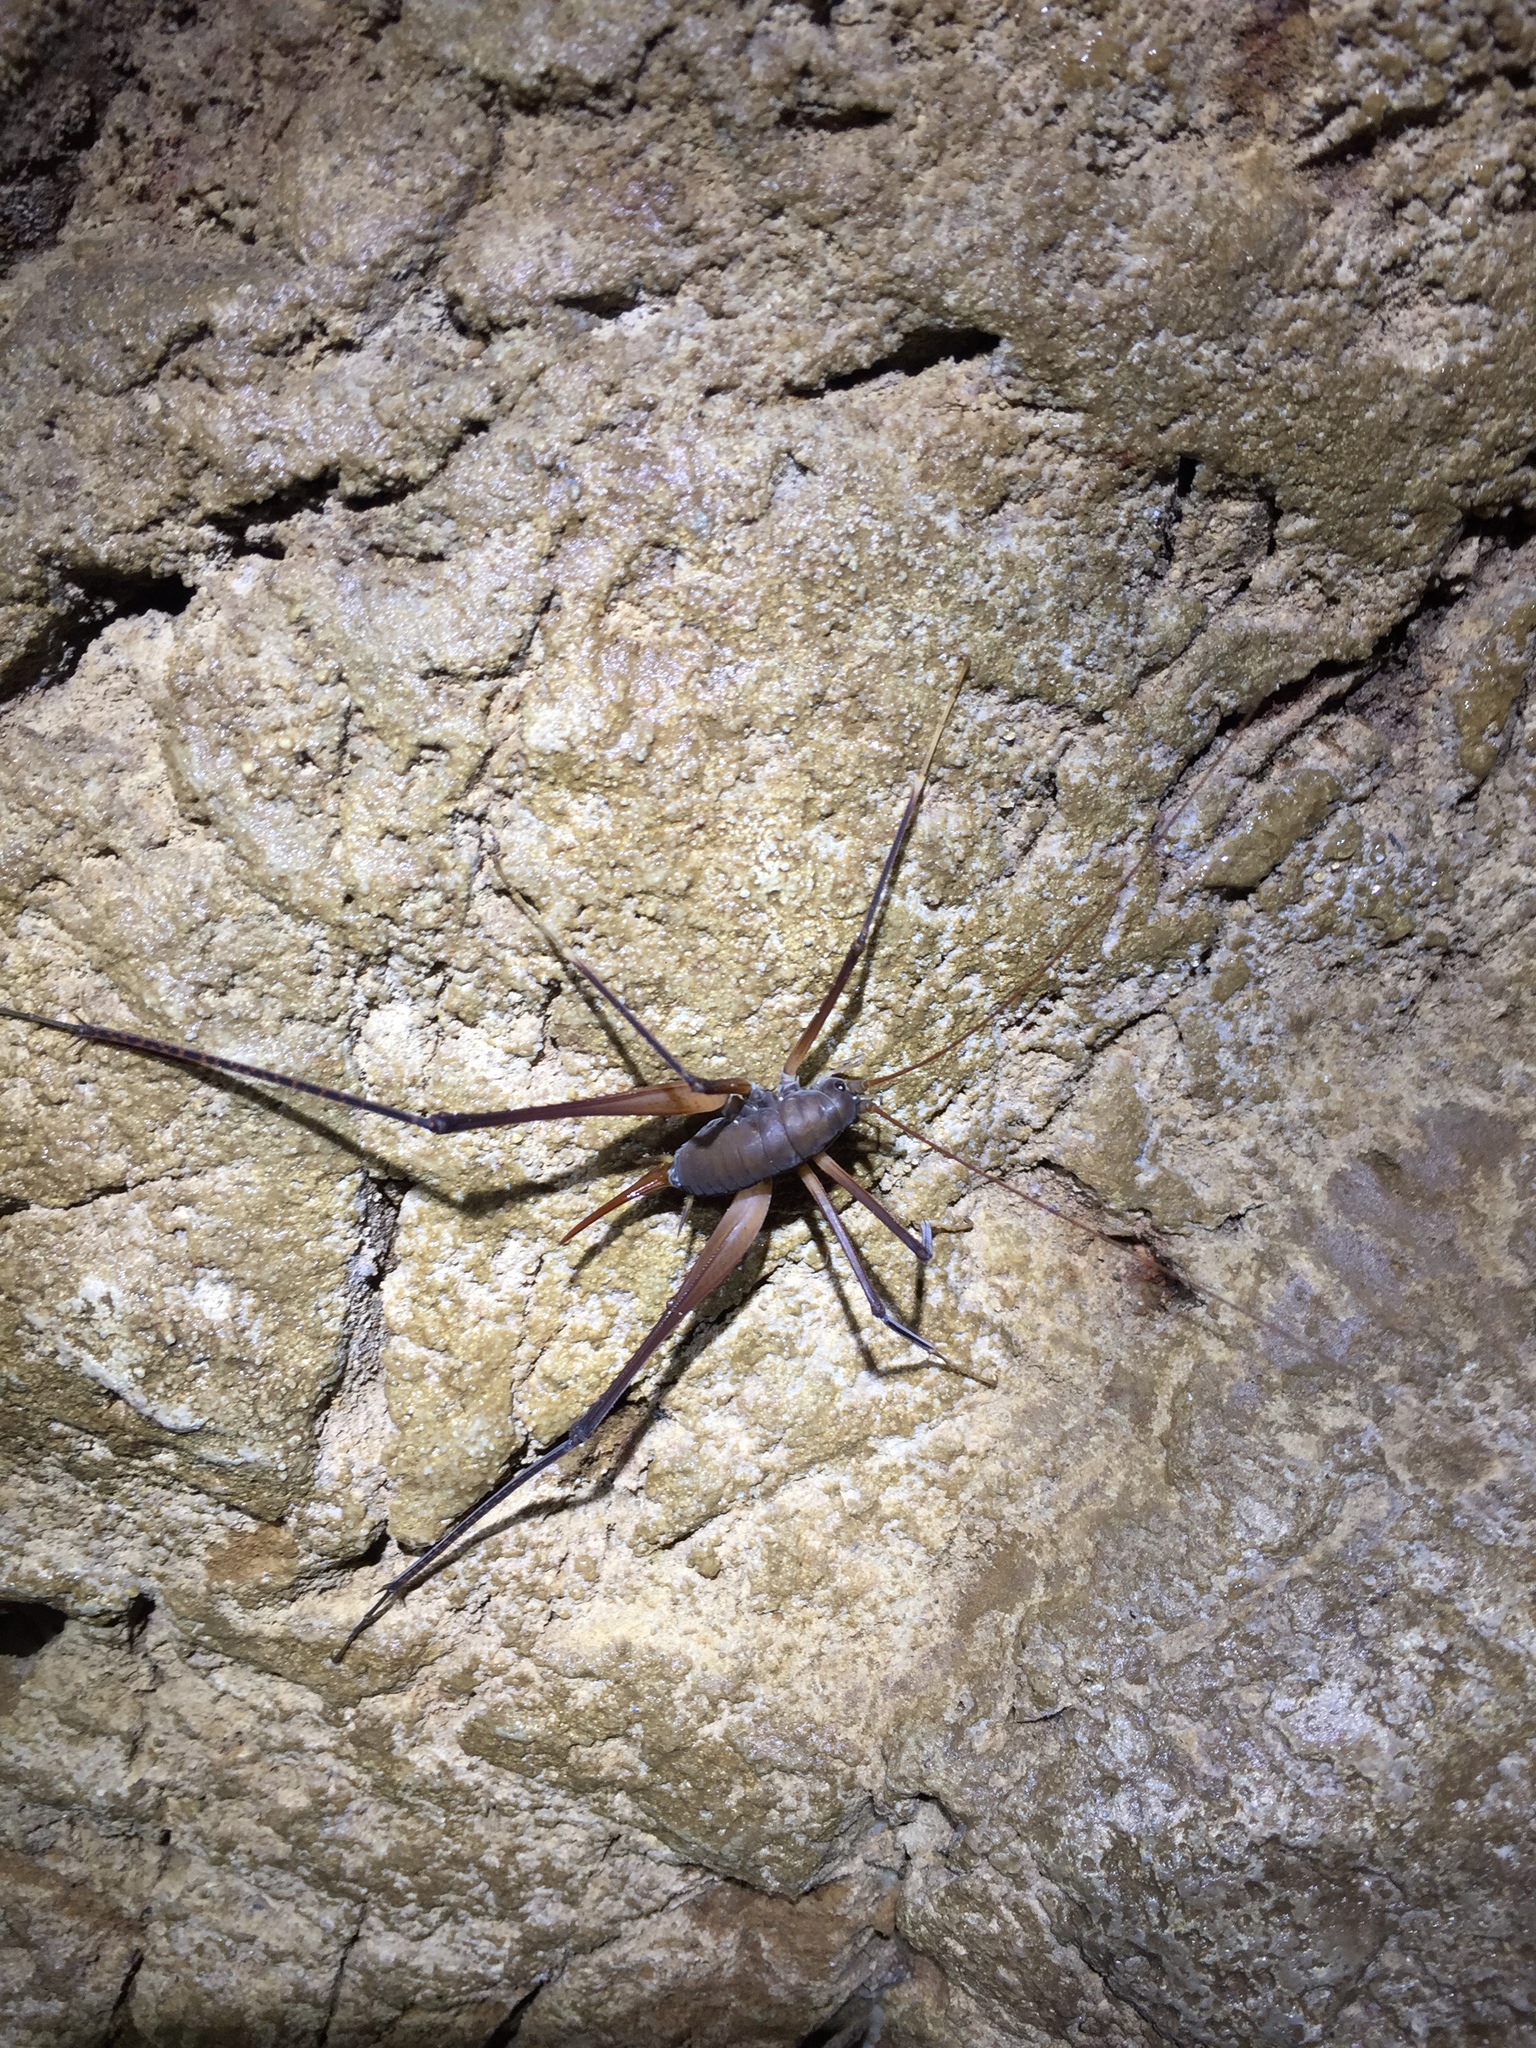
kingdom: Animalia
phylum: Arthropoda
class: Insecta
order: Orthoptera
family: Rhaphidophoridae
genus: Tropidischia
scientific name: Tropidischia xanthostoma
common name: Square-legged camel cricket
